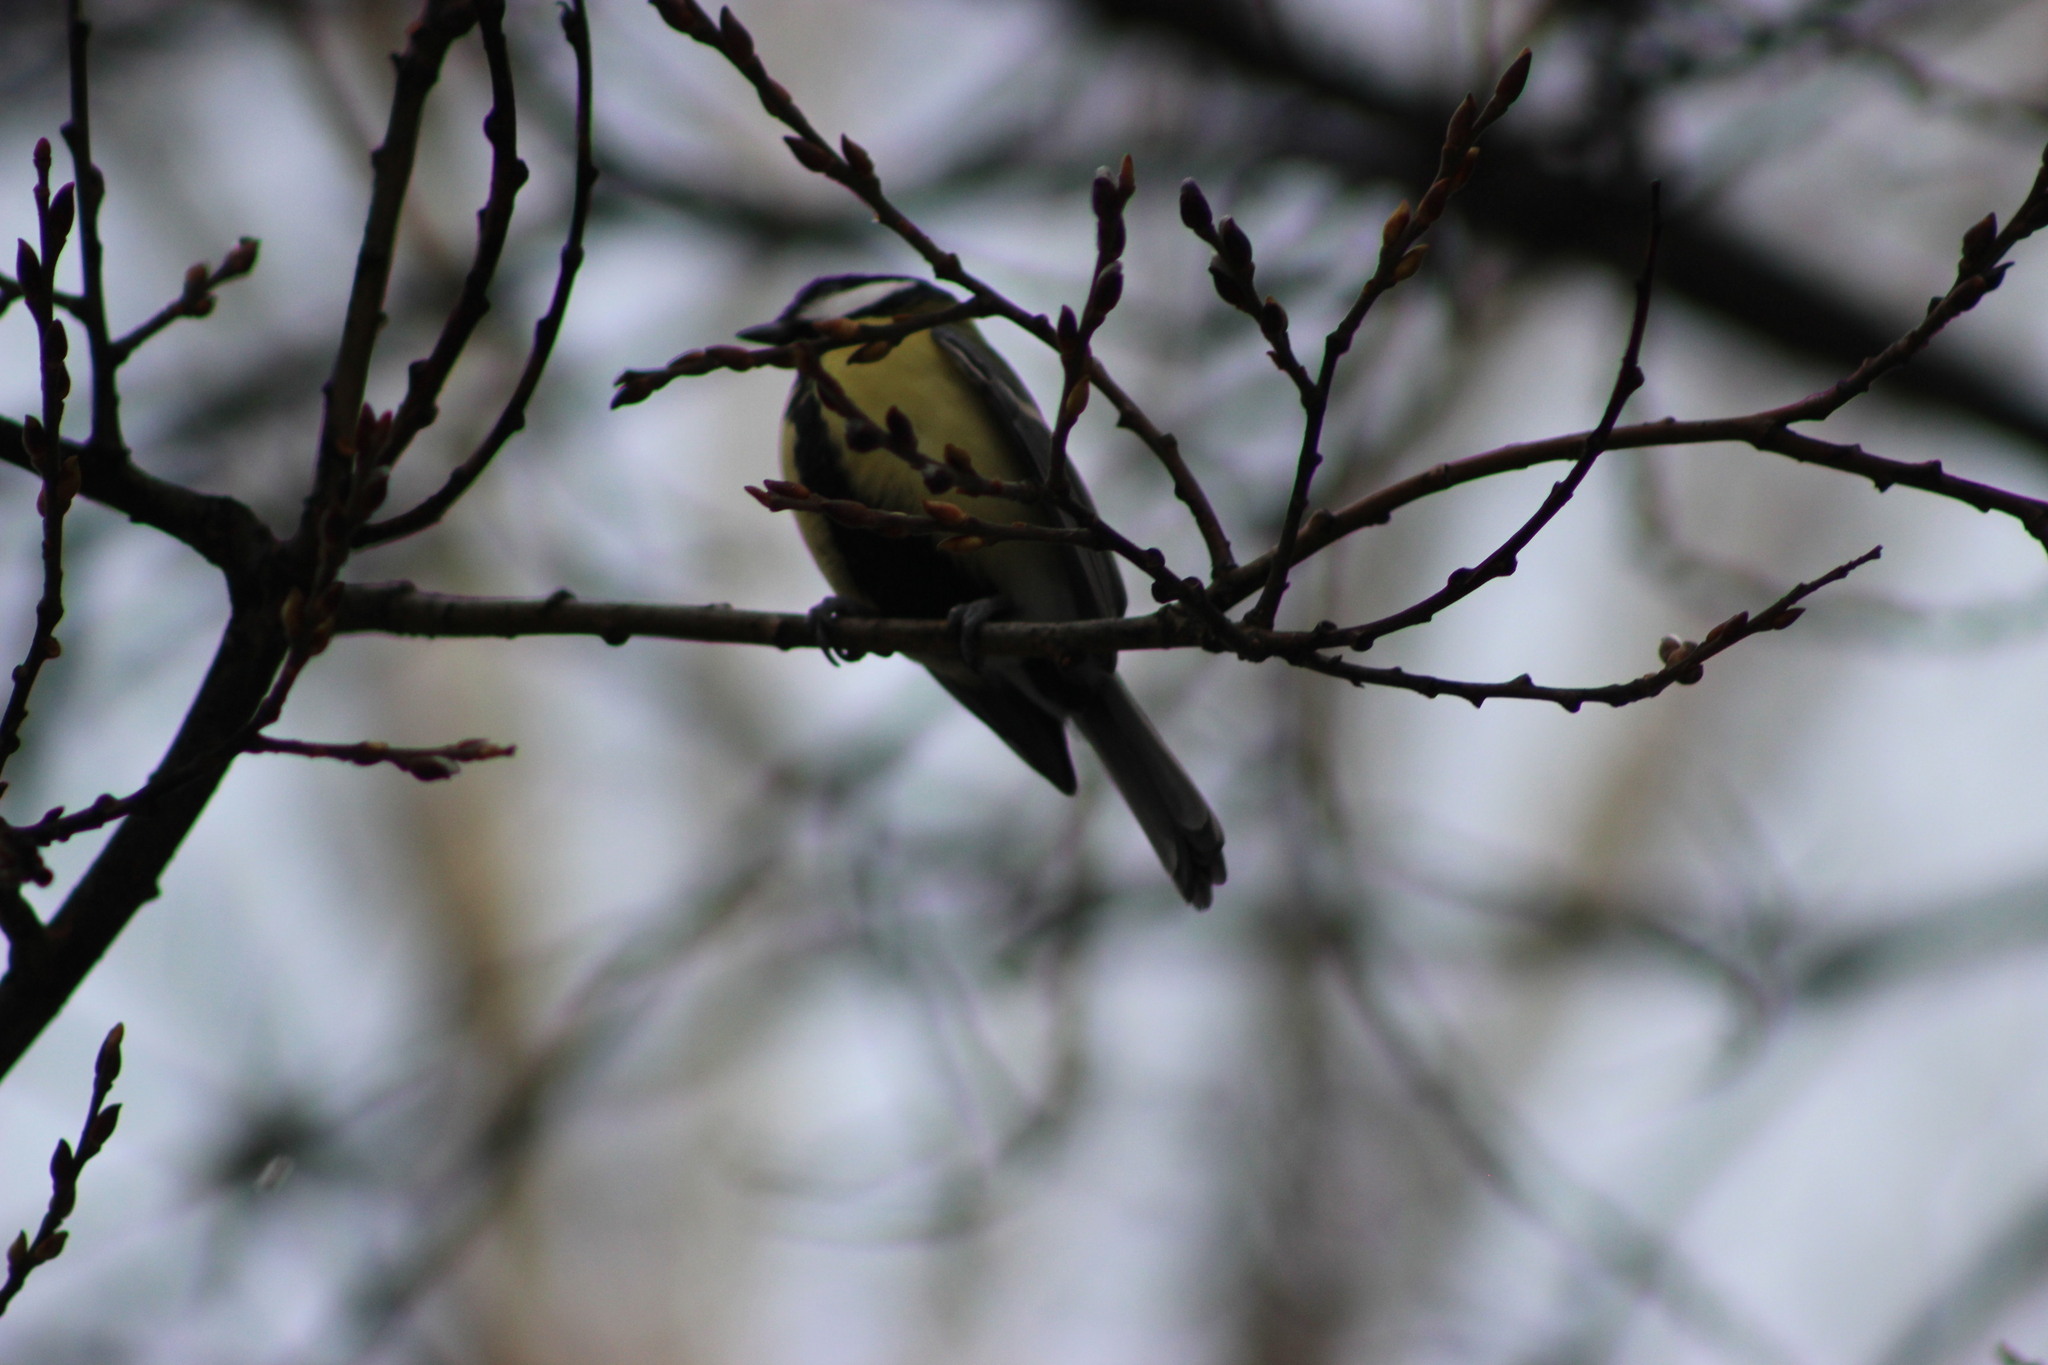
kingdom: Animalia
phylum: Chordata
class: Aves
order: Passeriformes
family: Paridae
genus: Parus
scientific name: Parus major
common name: Great tit
